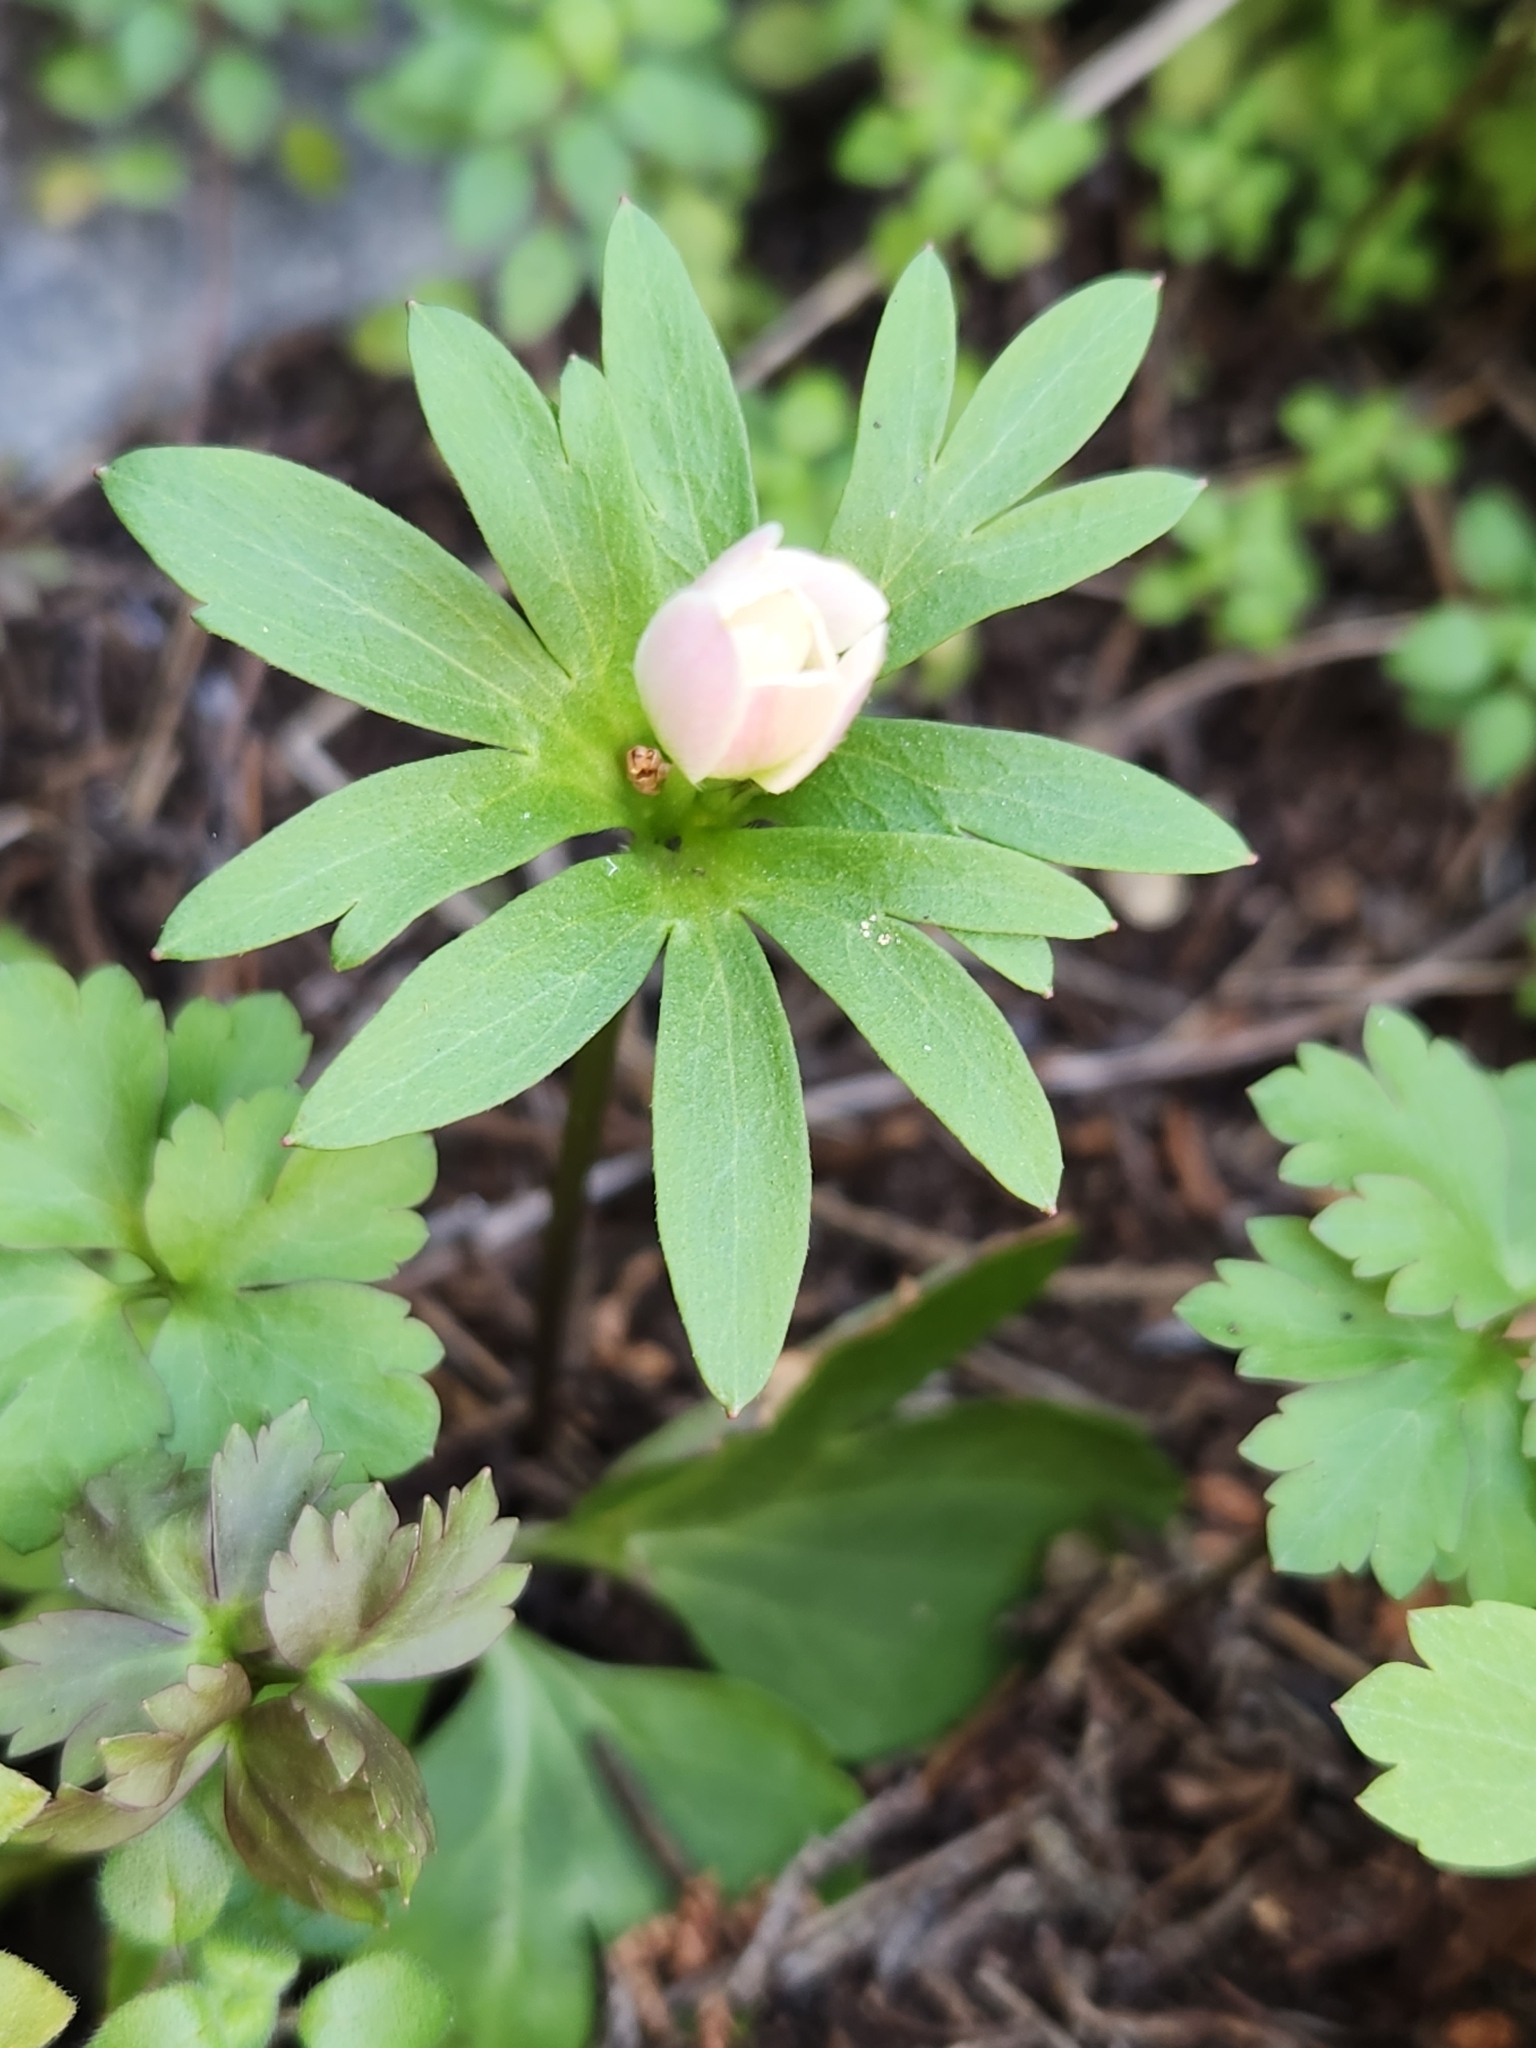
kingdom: Plantae
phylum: Tracheophyta
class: Magnoliopsida
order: Ranunculales
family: Ranunculaceae
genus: Anemone
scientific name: Anemone edwardsiana
